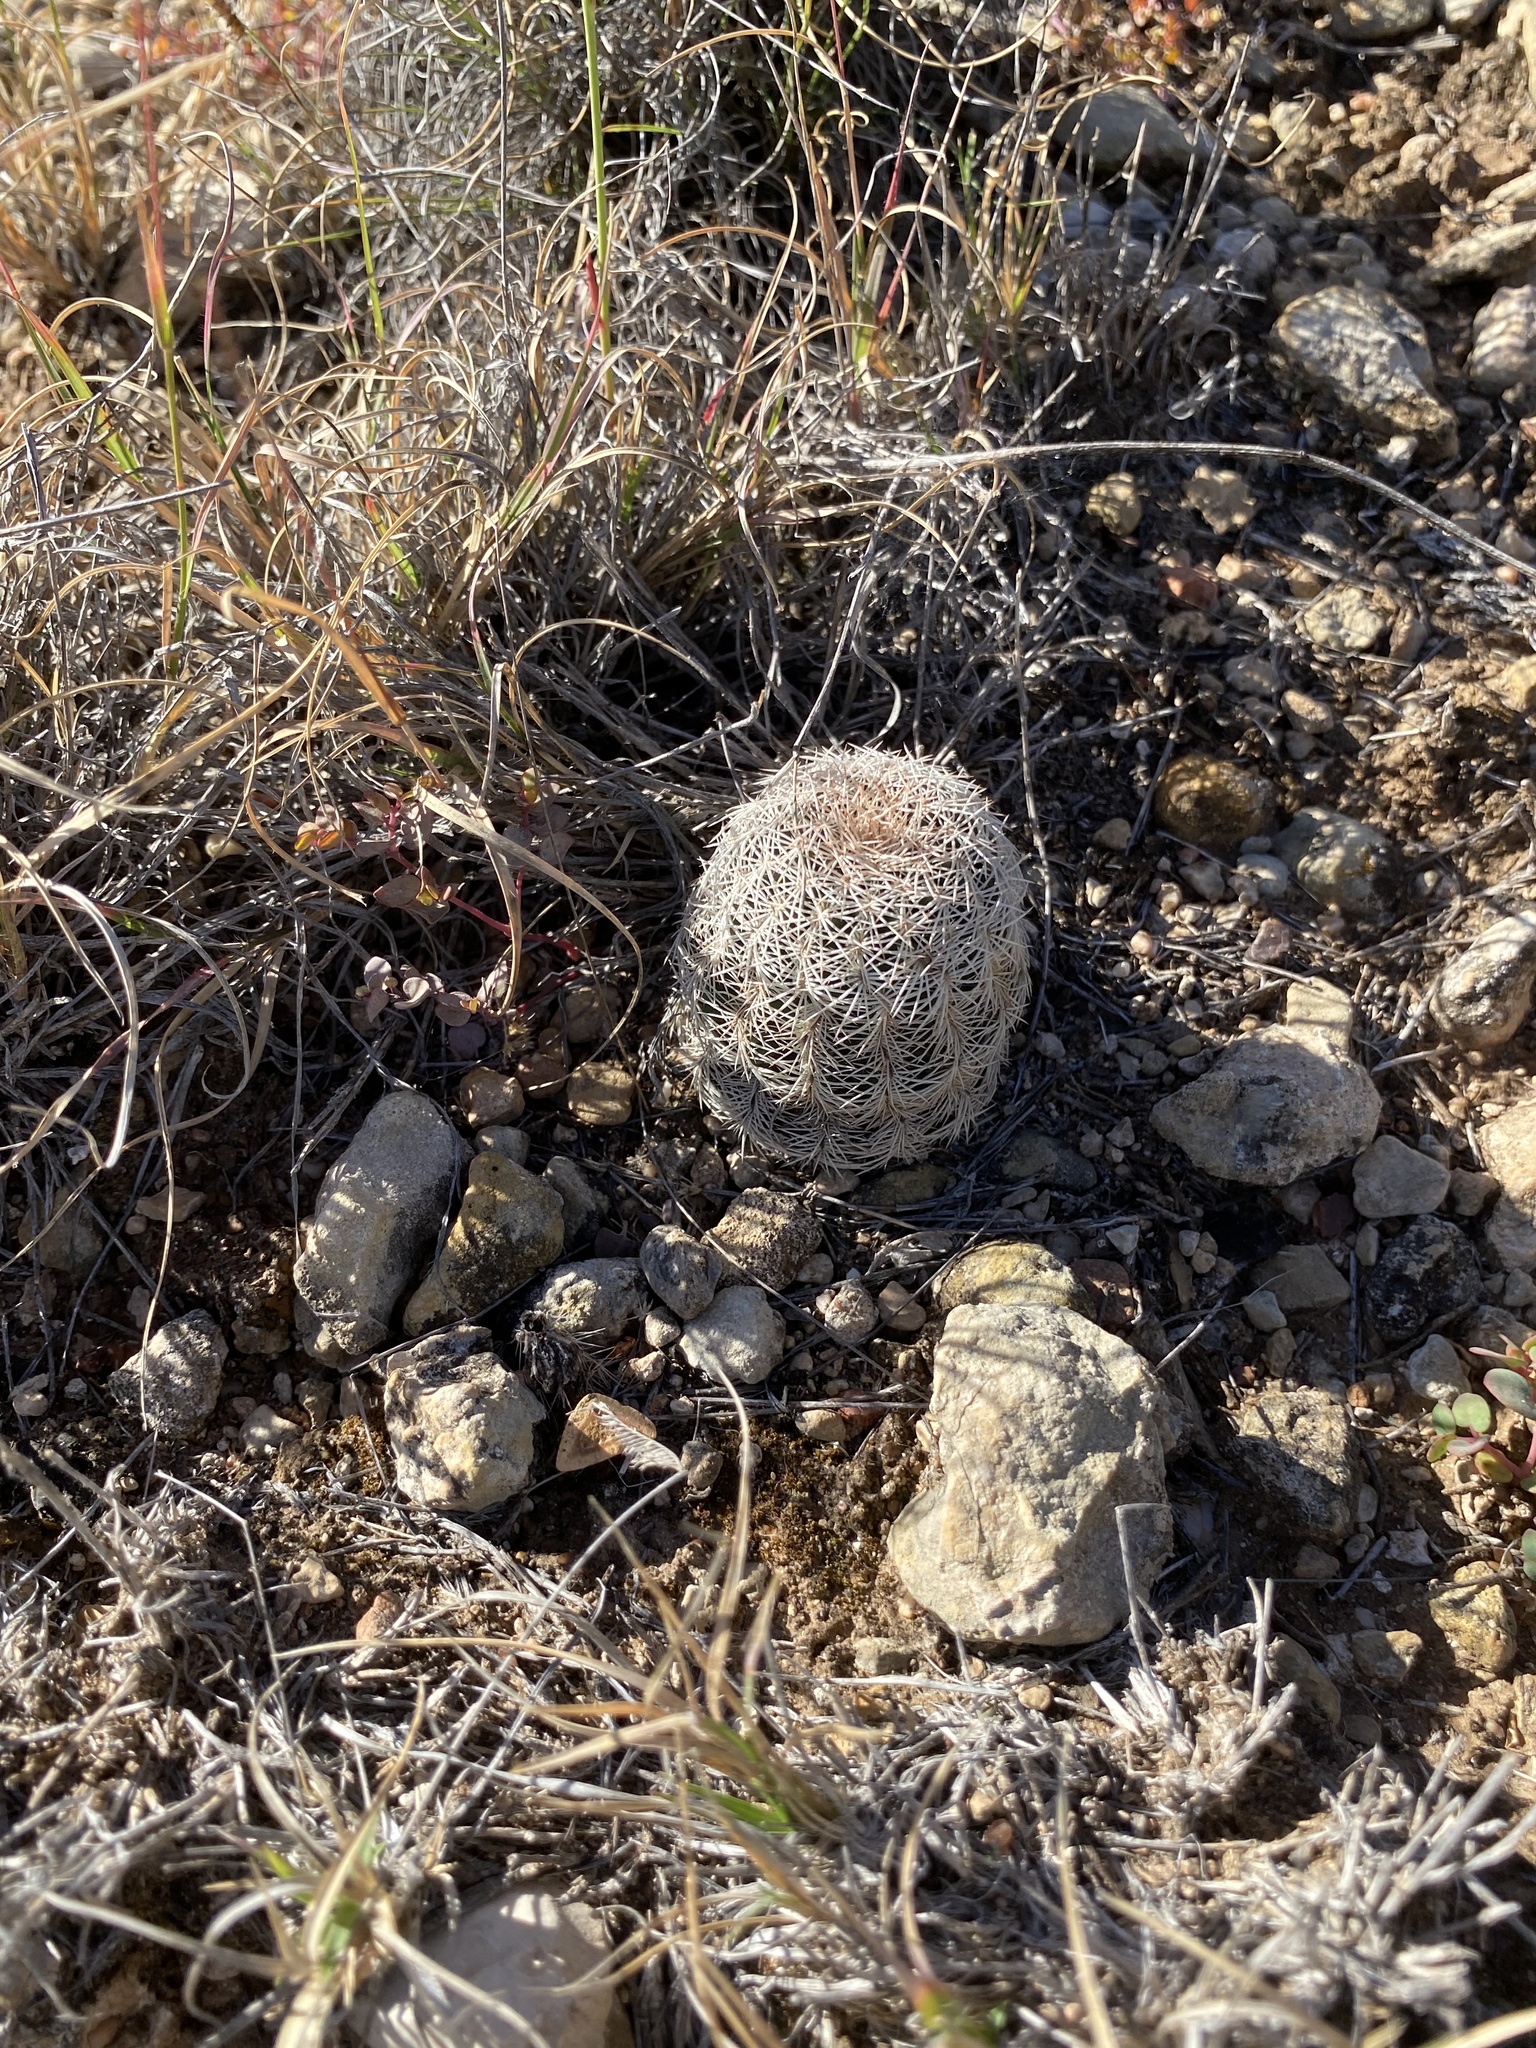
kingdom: Plantae
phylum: Tracheophyta
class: Magnoliopsida
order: Caryophyllales
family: Cactaceae
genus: Echinocereus
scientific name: Echinocereus reichenbachii
